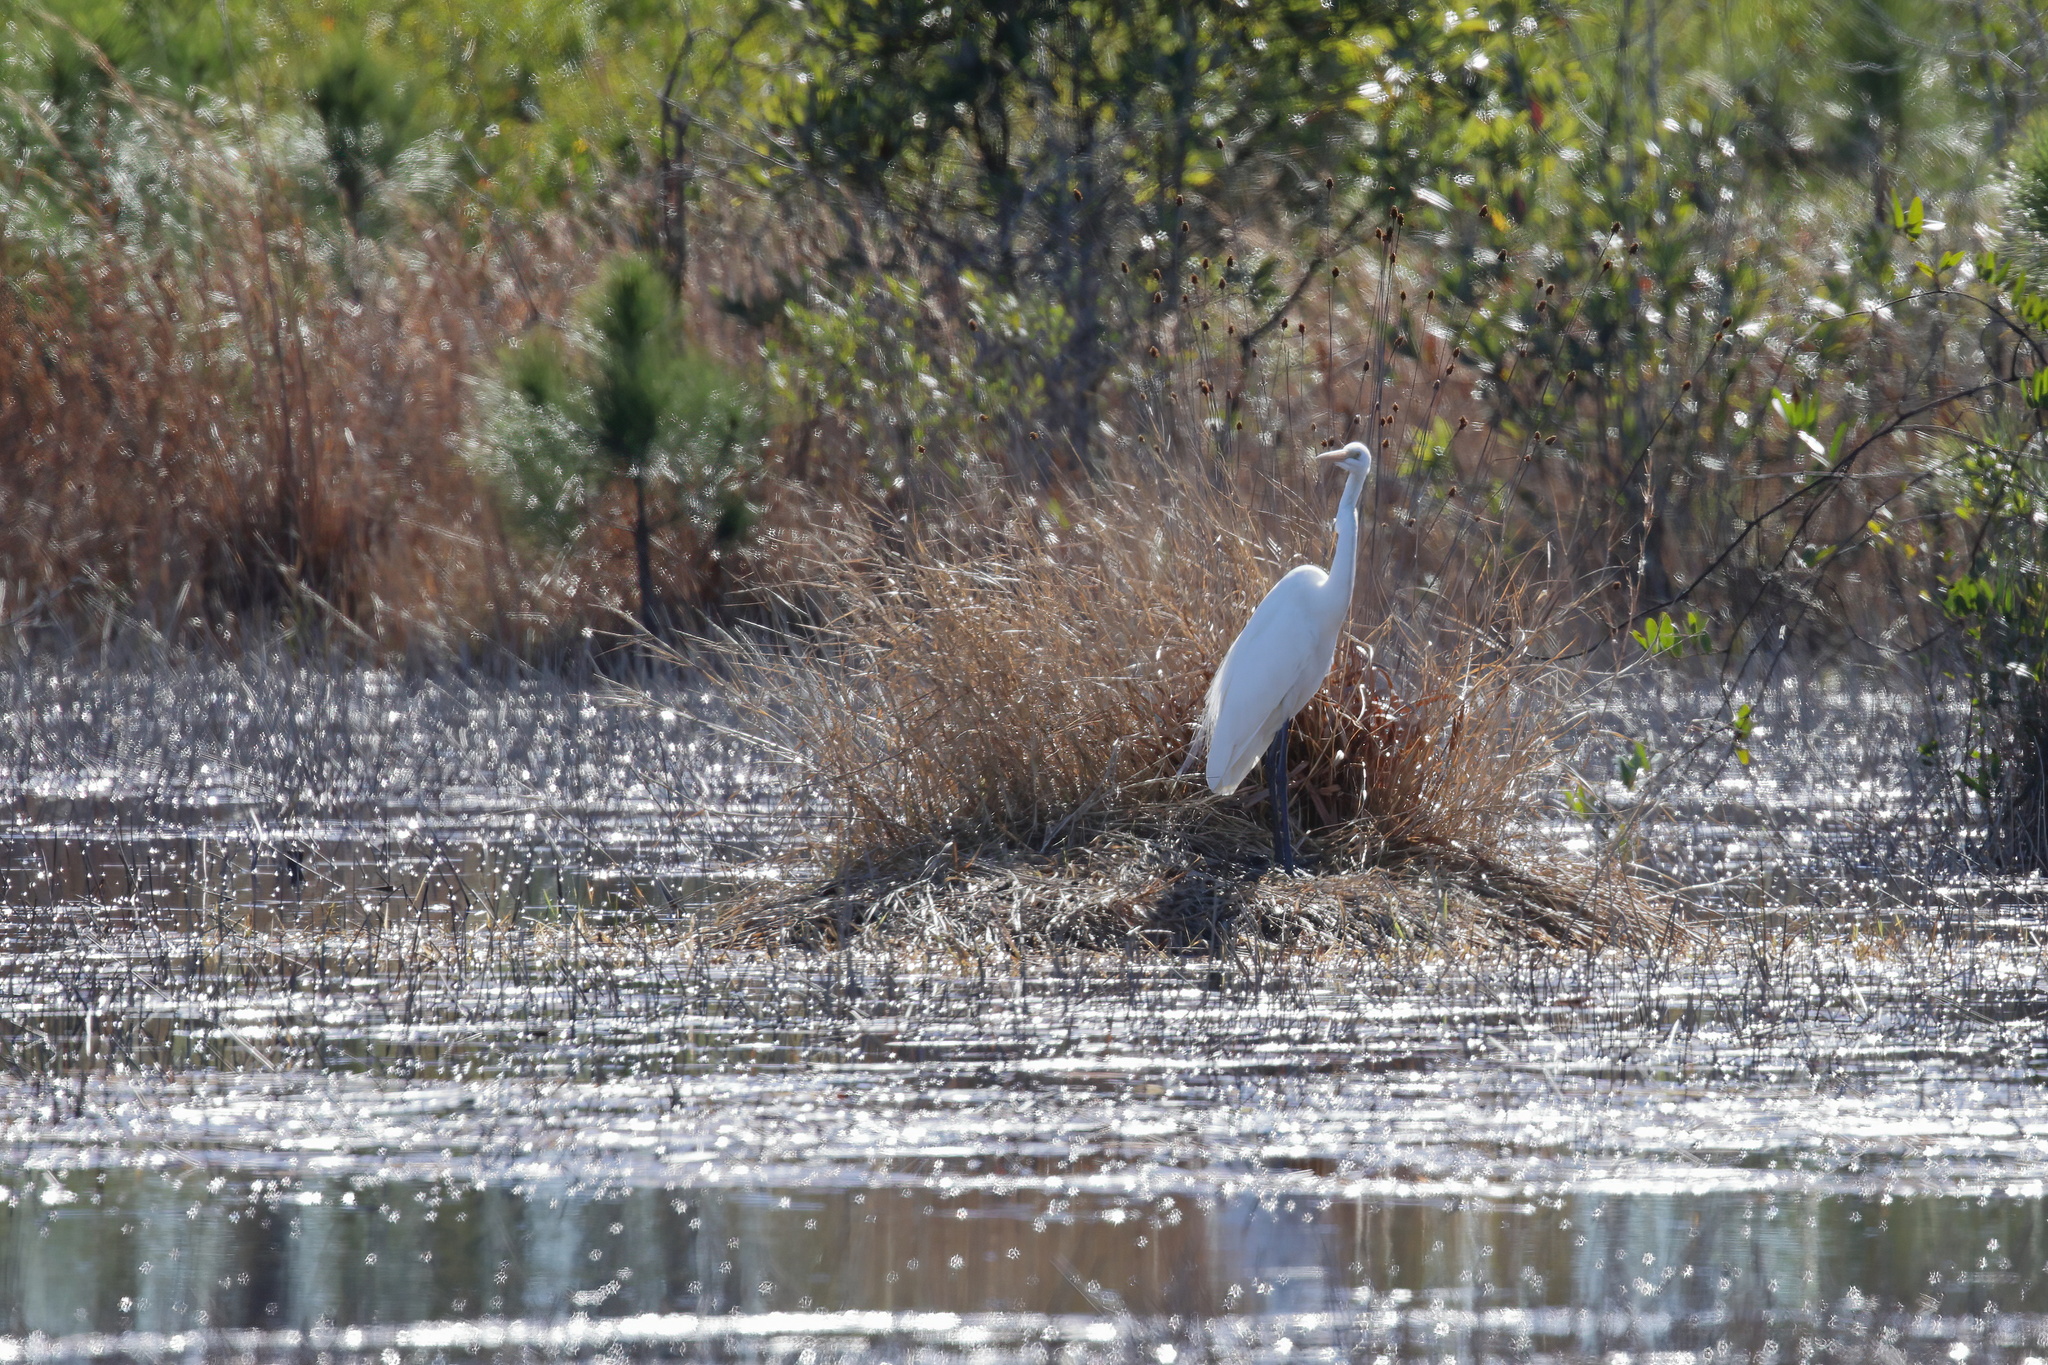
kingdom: Animalia
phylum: Chordata
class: Aves
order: Pelecaniformes
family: Ardeidae
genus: Ardea
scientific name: Ardea alba
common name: Great egret
